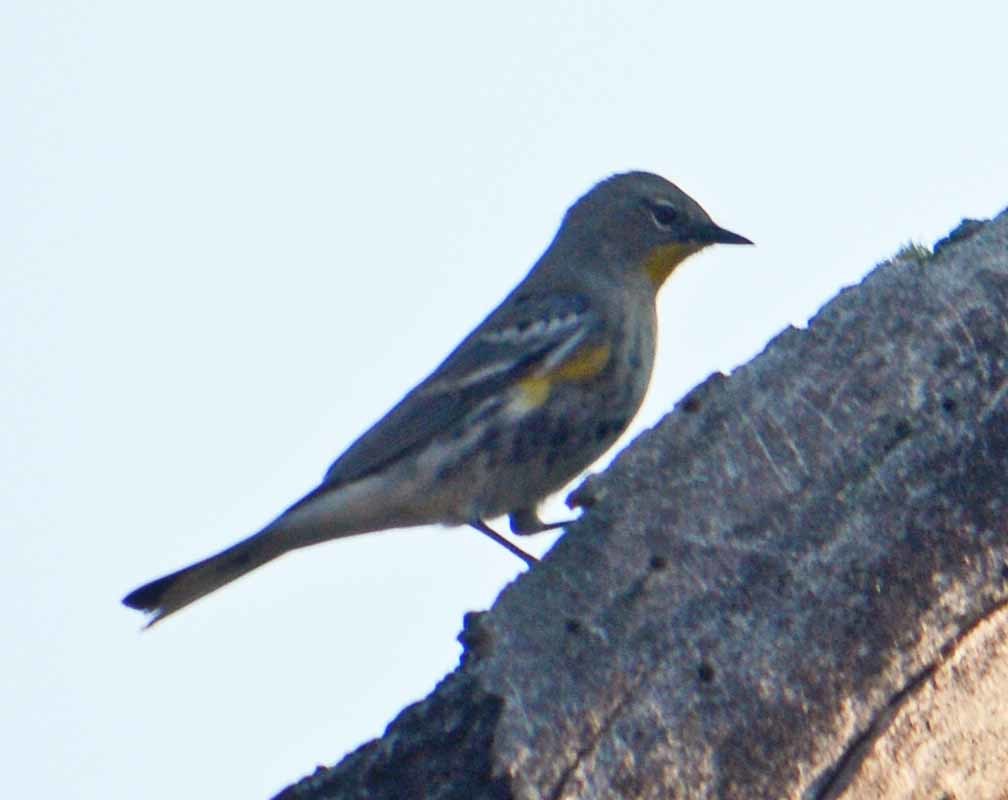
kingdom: Animalia
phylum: Chordata
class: Aves
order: Passeriformes
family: Parulidae
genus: Setophaga
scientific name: Setophaga auduboni
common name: Audubon's warbler
